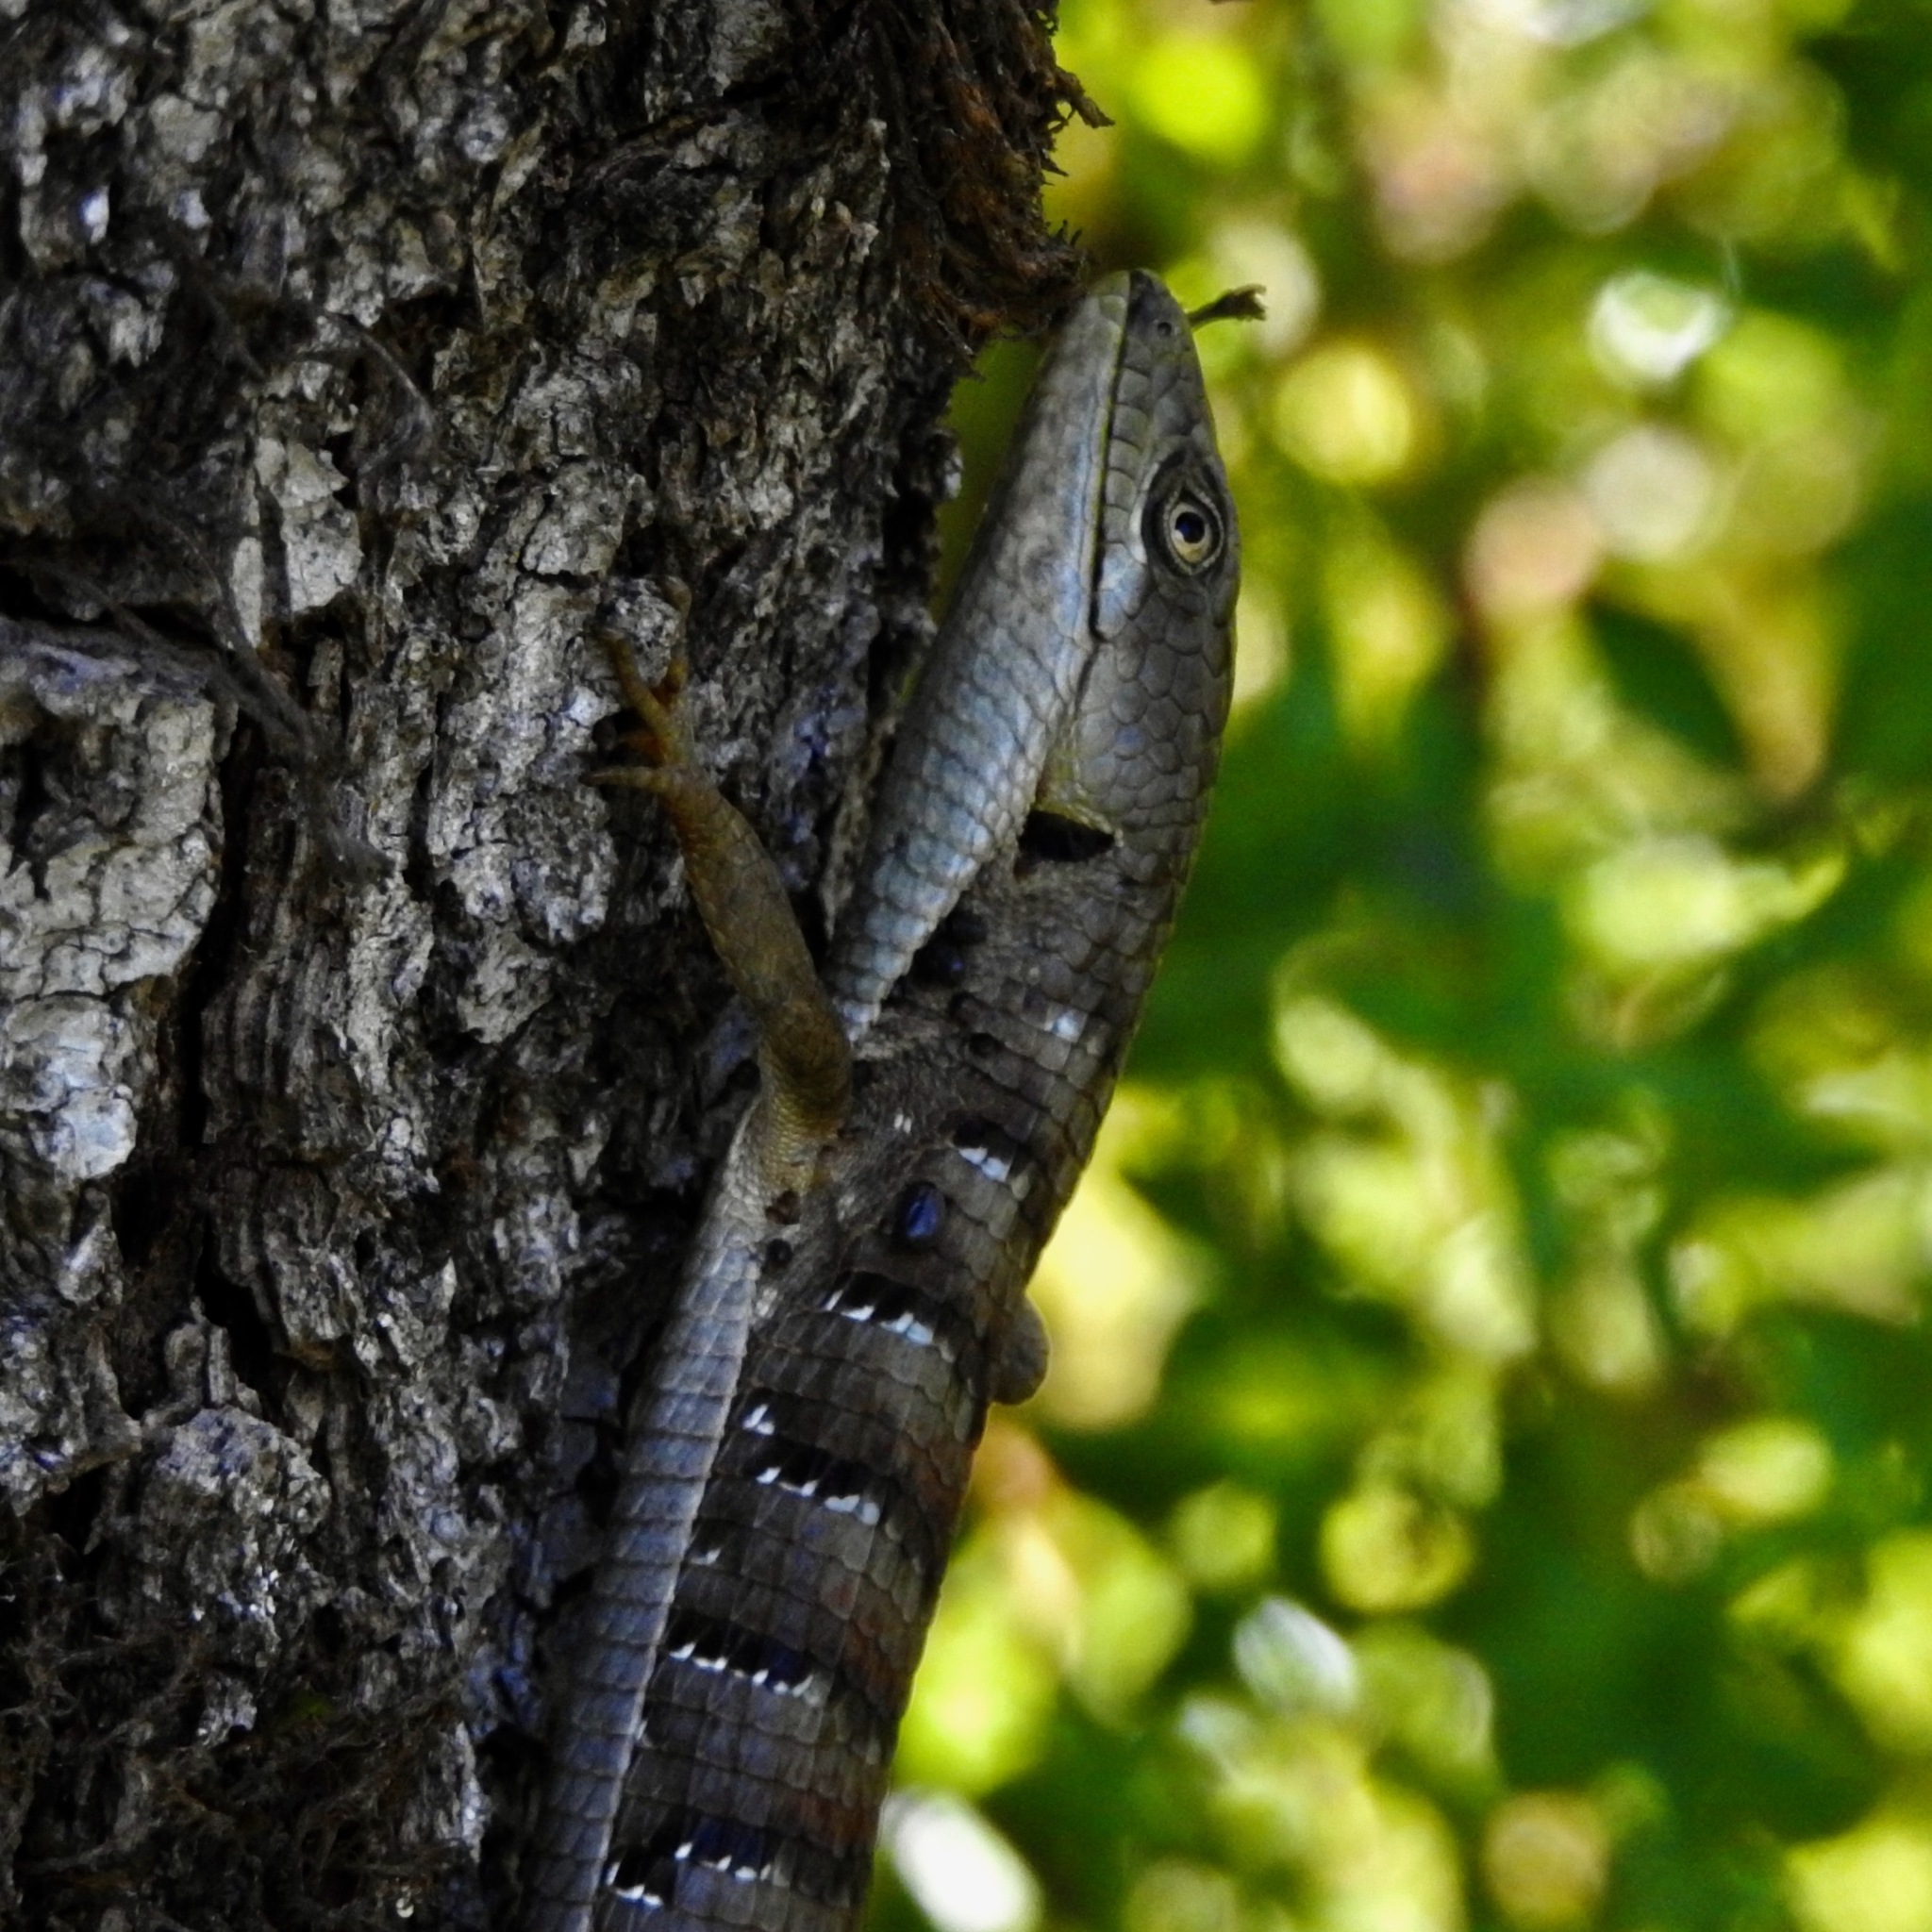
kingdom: Animalia
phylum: Chordata
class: Squamata
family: Anguidae
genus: Elgaria
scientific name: Elgaria multicarinata
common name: Southern alligator lizard
